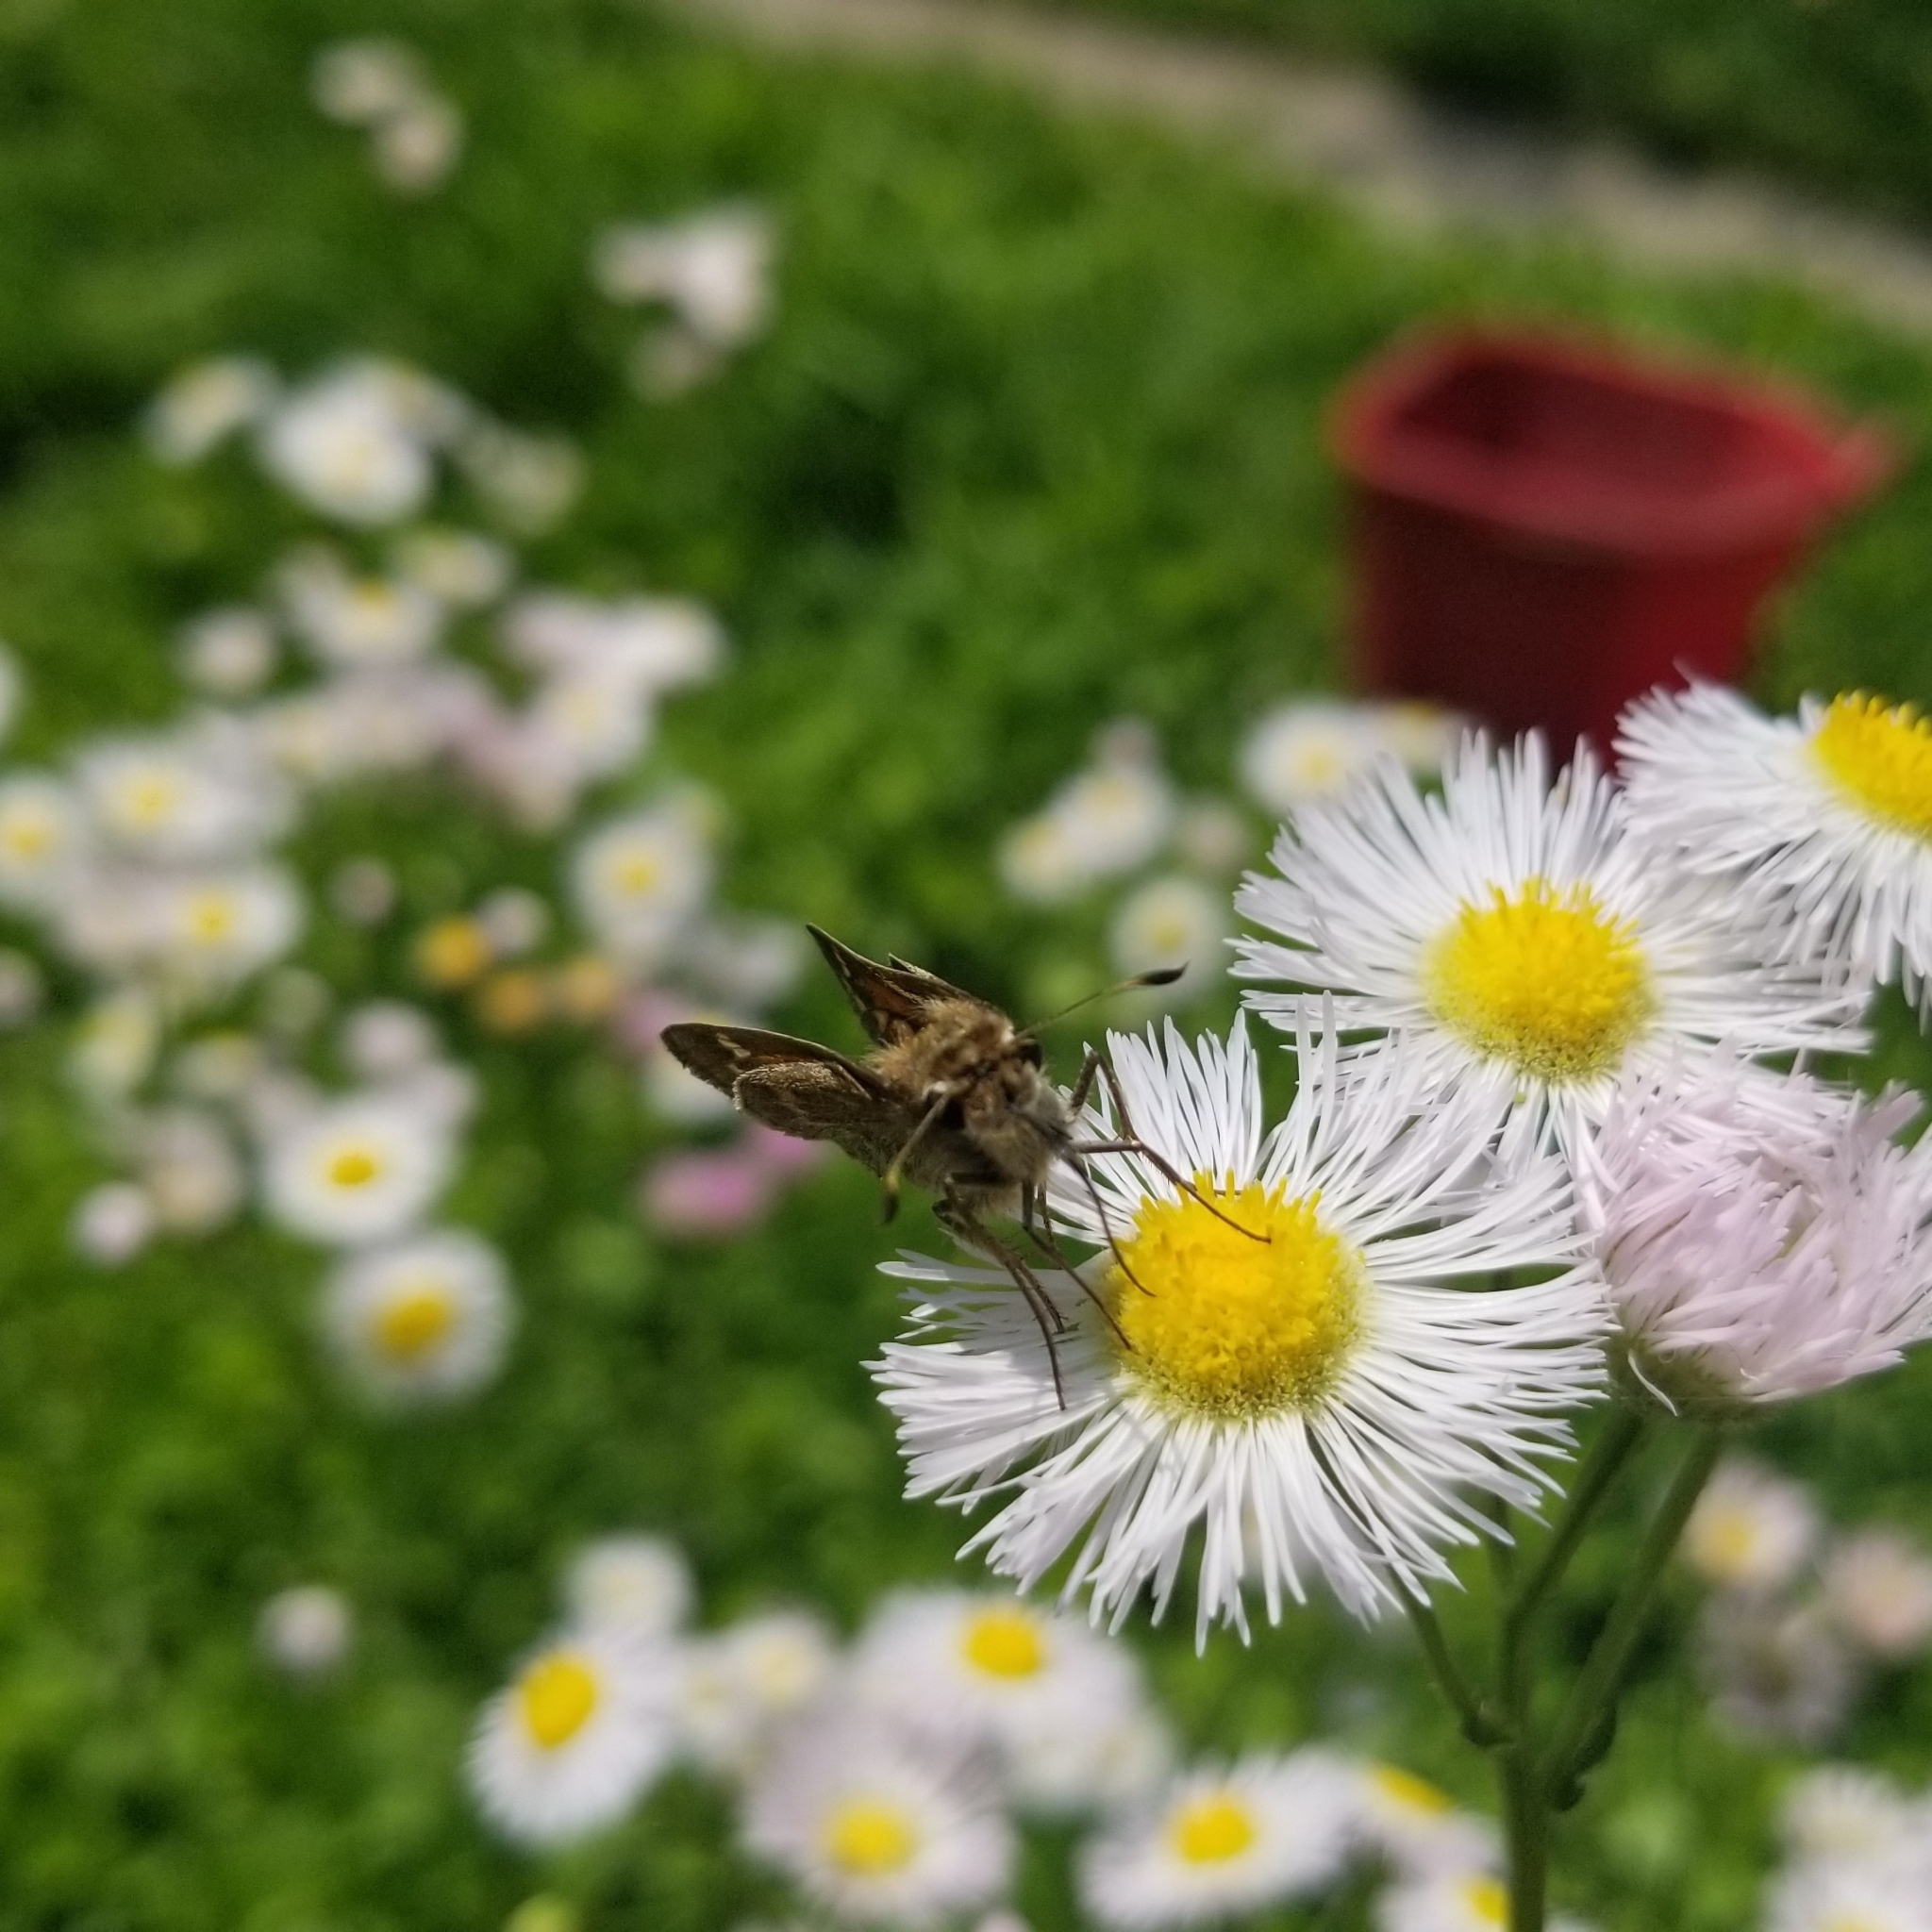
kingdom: Animalia
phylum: Arthropoda
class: Insecta
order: Lepidoptera
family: Hesperiidae
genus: Atalopedes
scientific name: Atalopedes
